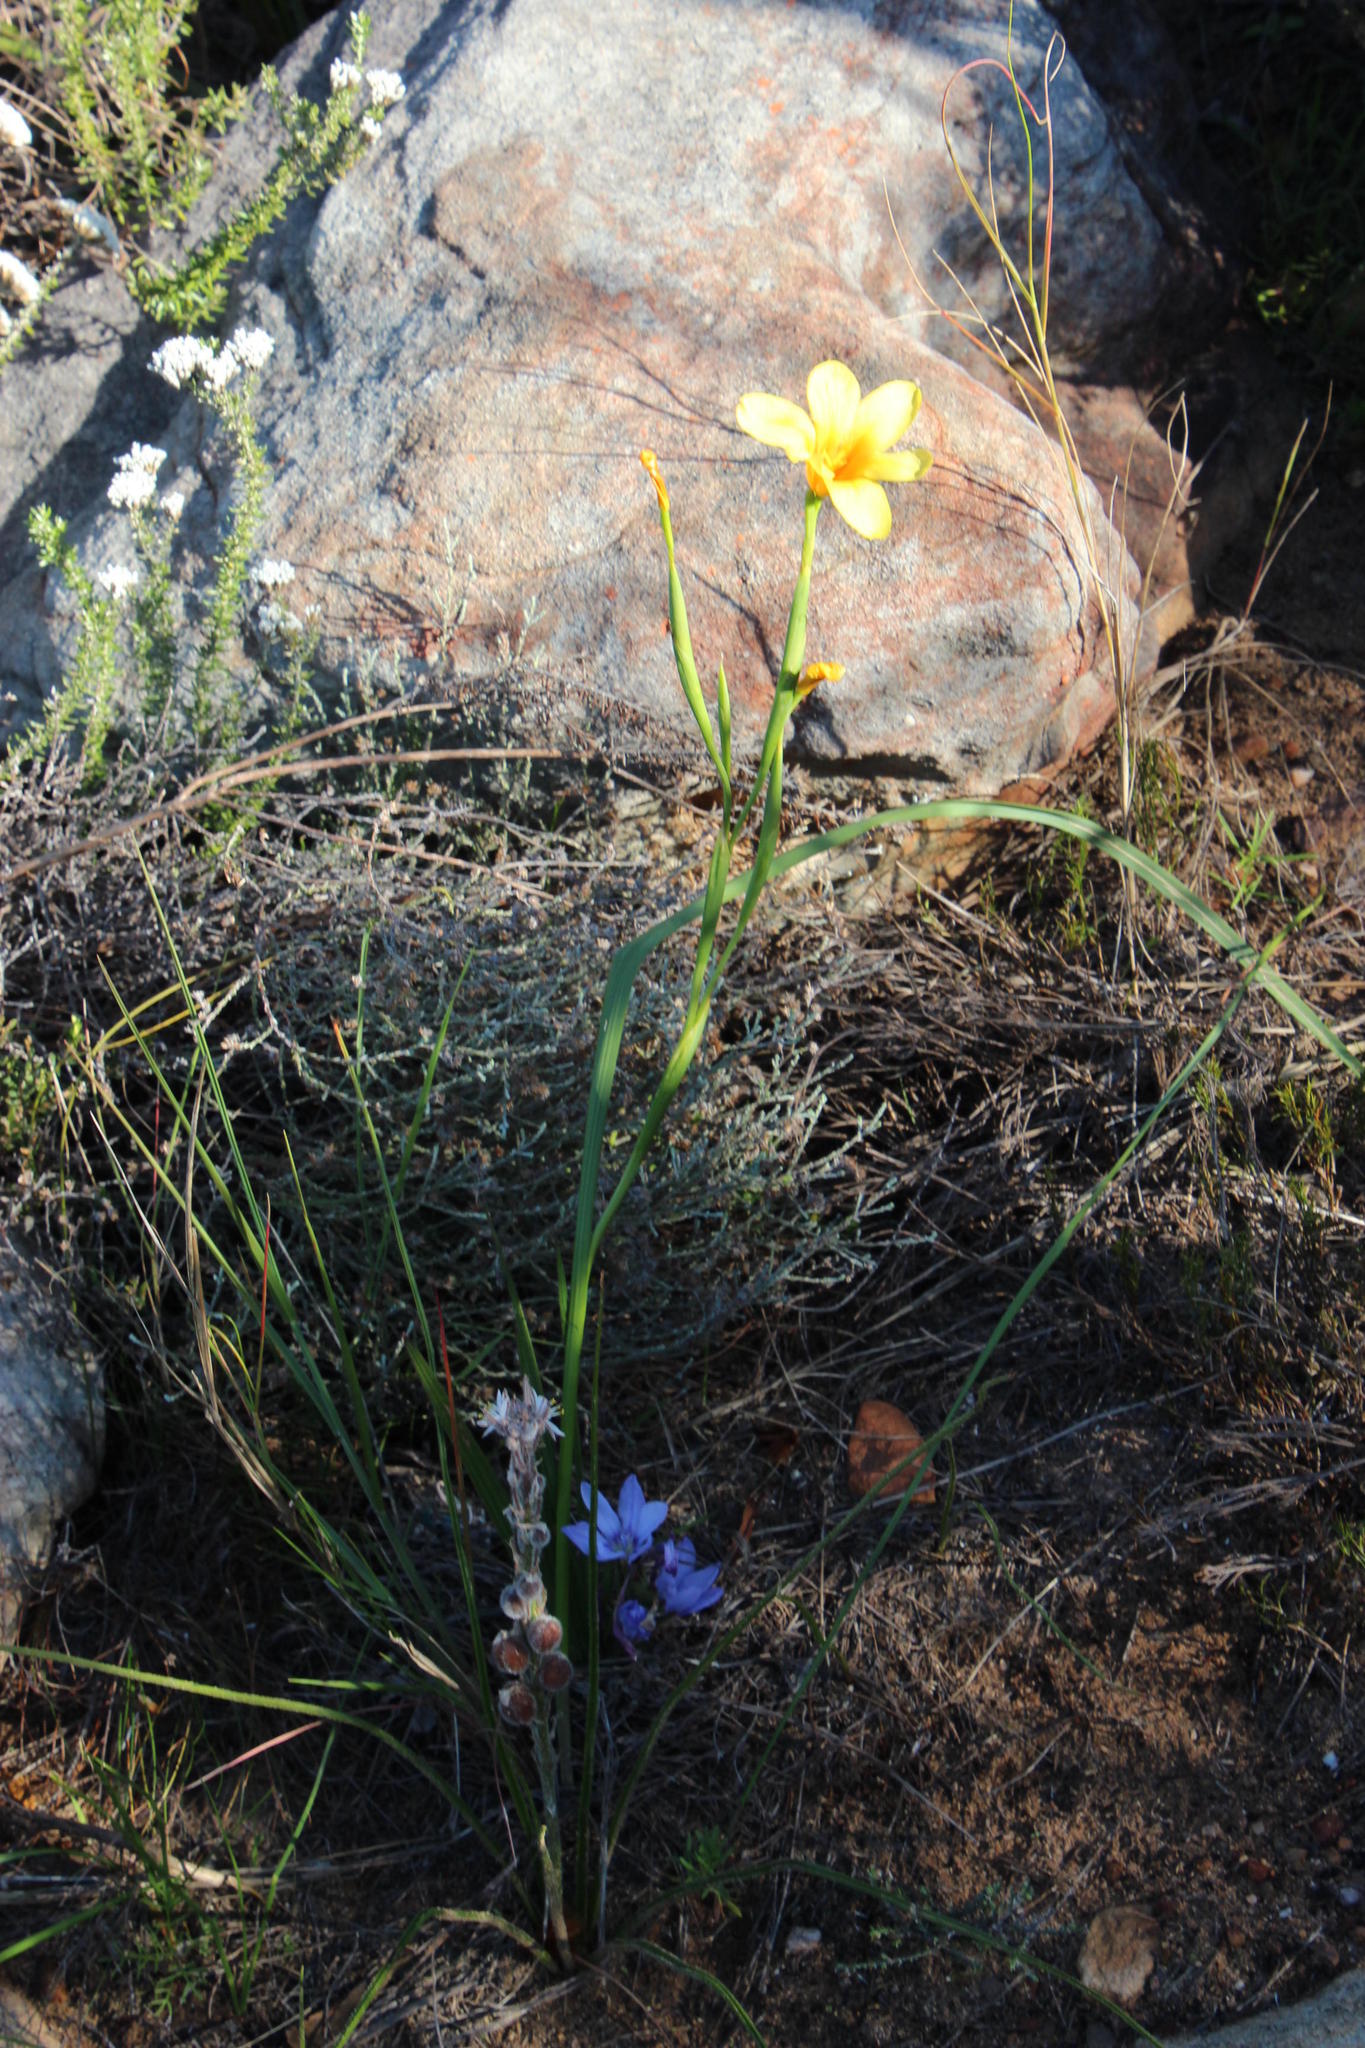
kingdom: Plantae
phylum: Tracheophyta
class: Liliopsida
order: Asparagales
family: Iridaceae
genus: Moraea
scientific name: Moraea ochroleuca
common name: Red tulp
